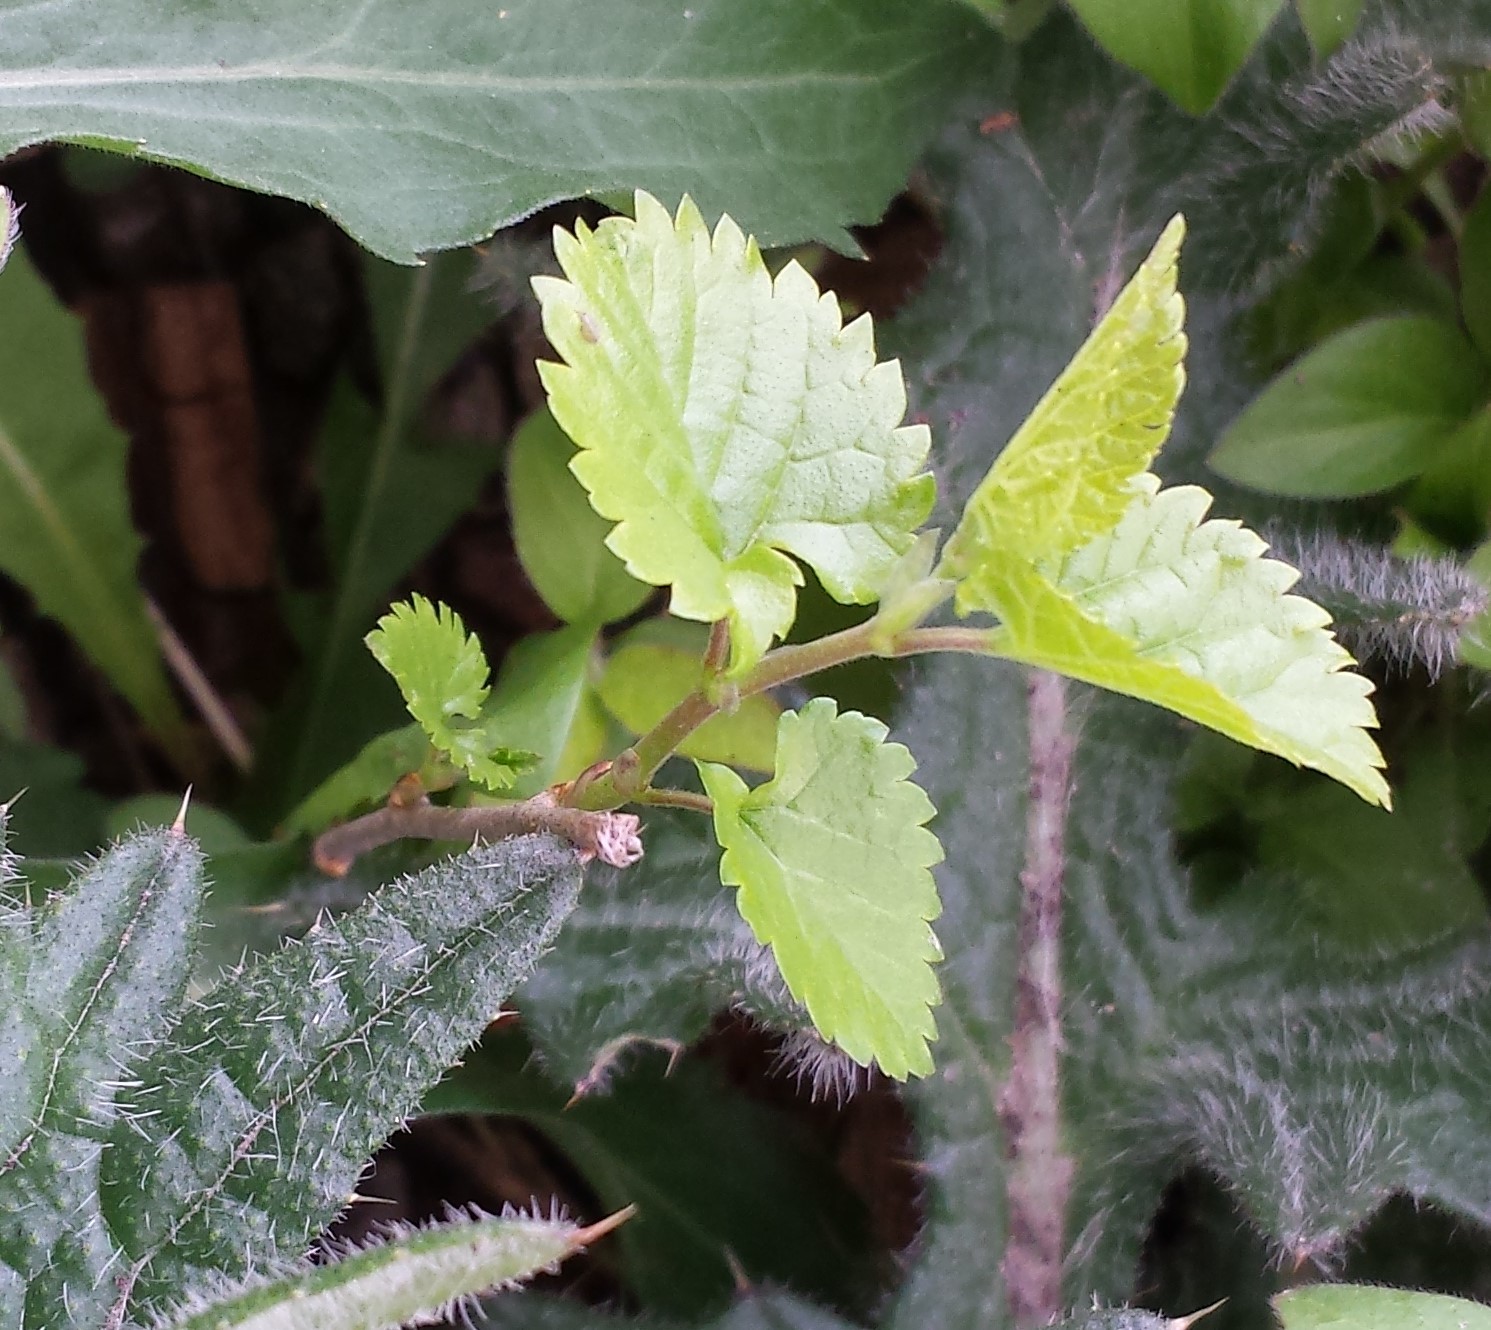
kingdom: Plantae
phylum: Tracheophyta
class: Magnoliopsida
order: Rosales
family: Moraceae
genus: Morus
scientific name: Morus alba
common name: White mulberry
